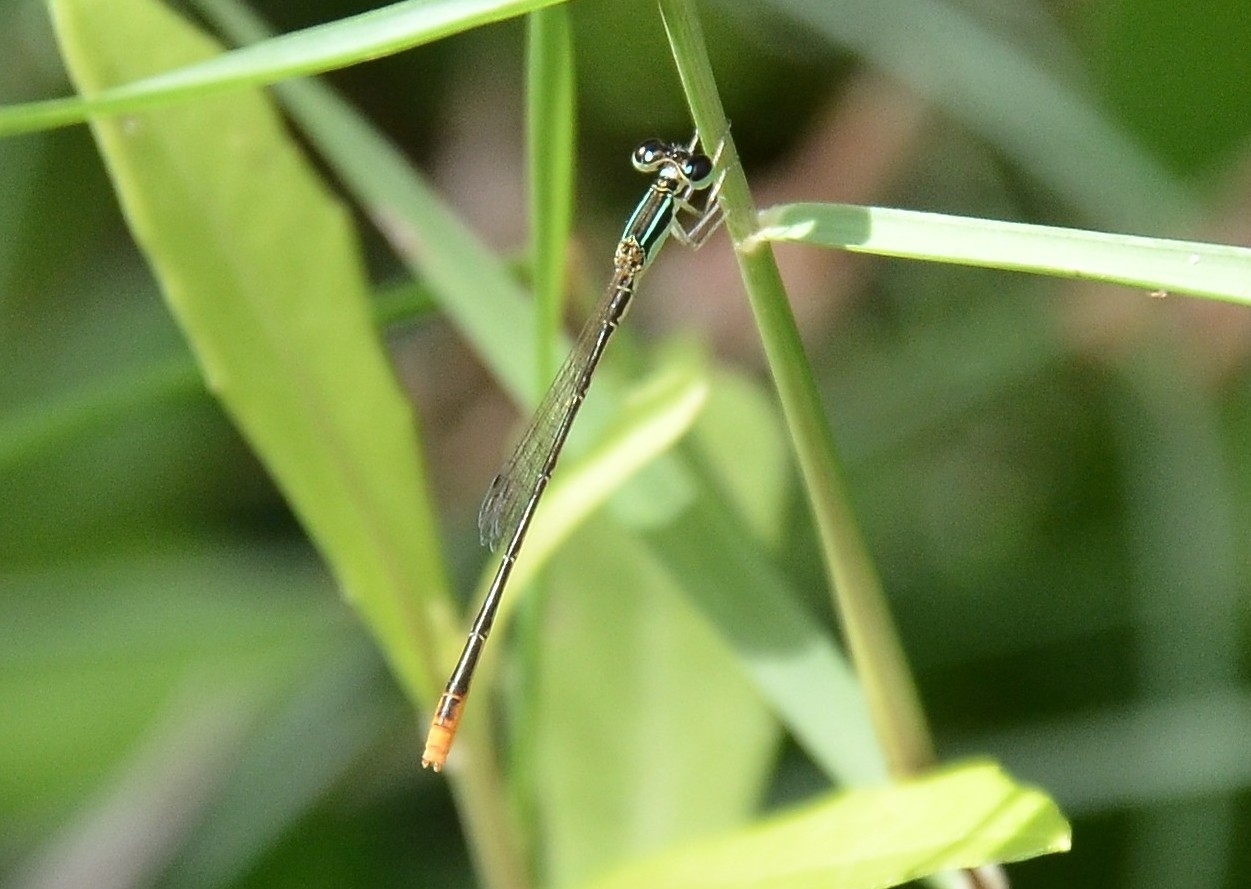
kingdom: Animalia
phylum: Arthropoda
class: Insecta
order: Odonata
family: Coenagrionidae
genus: Agriocnemis
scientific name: Agriocnemis pygmaea
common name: Pygmy wisp
